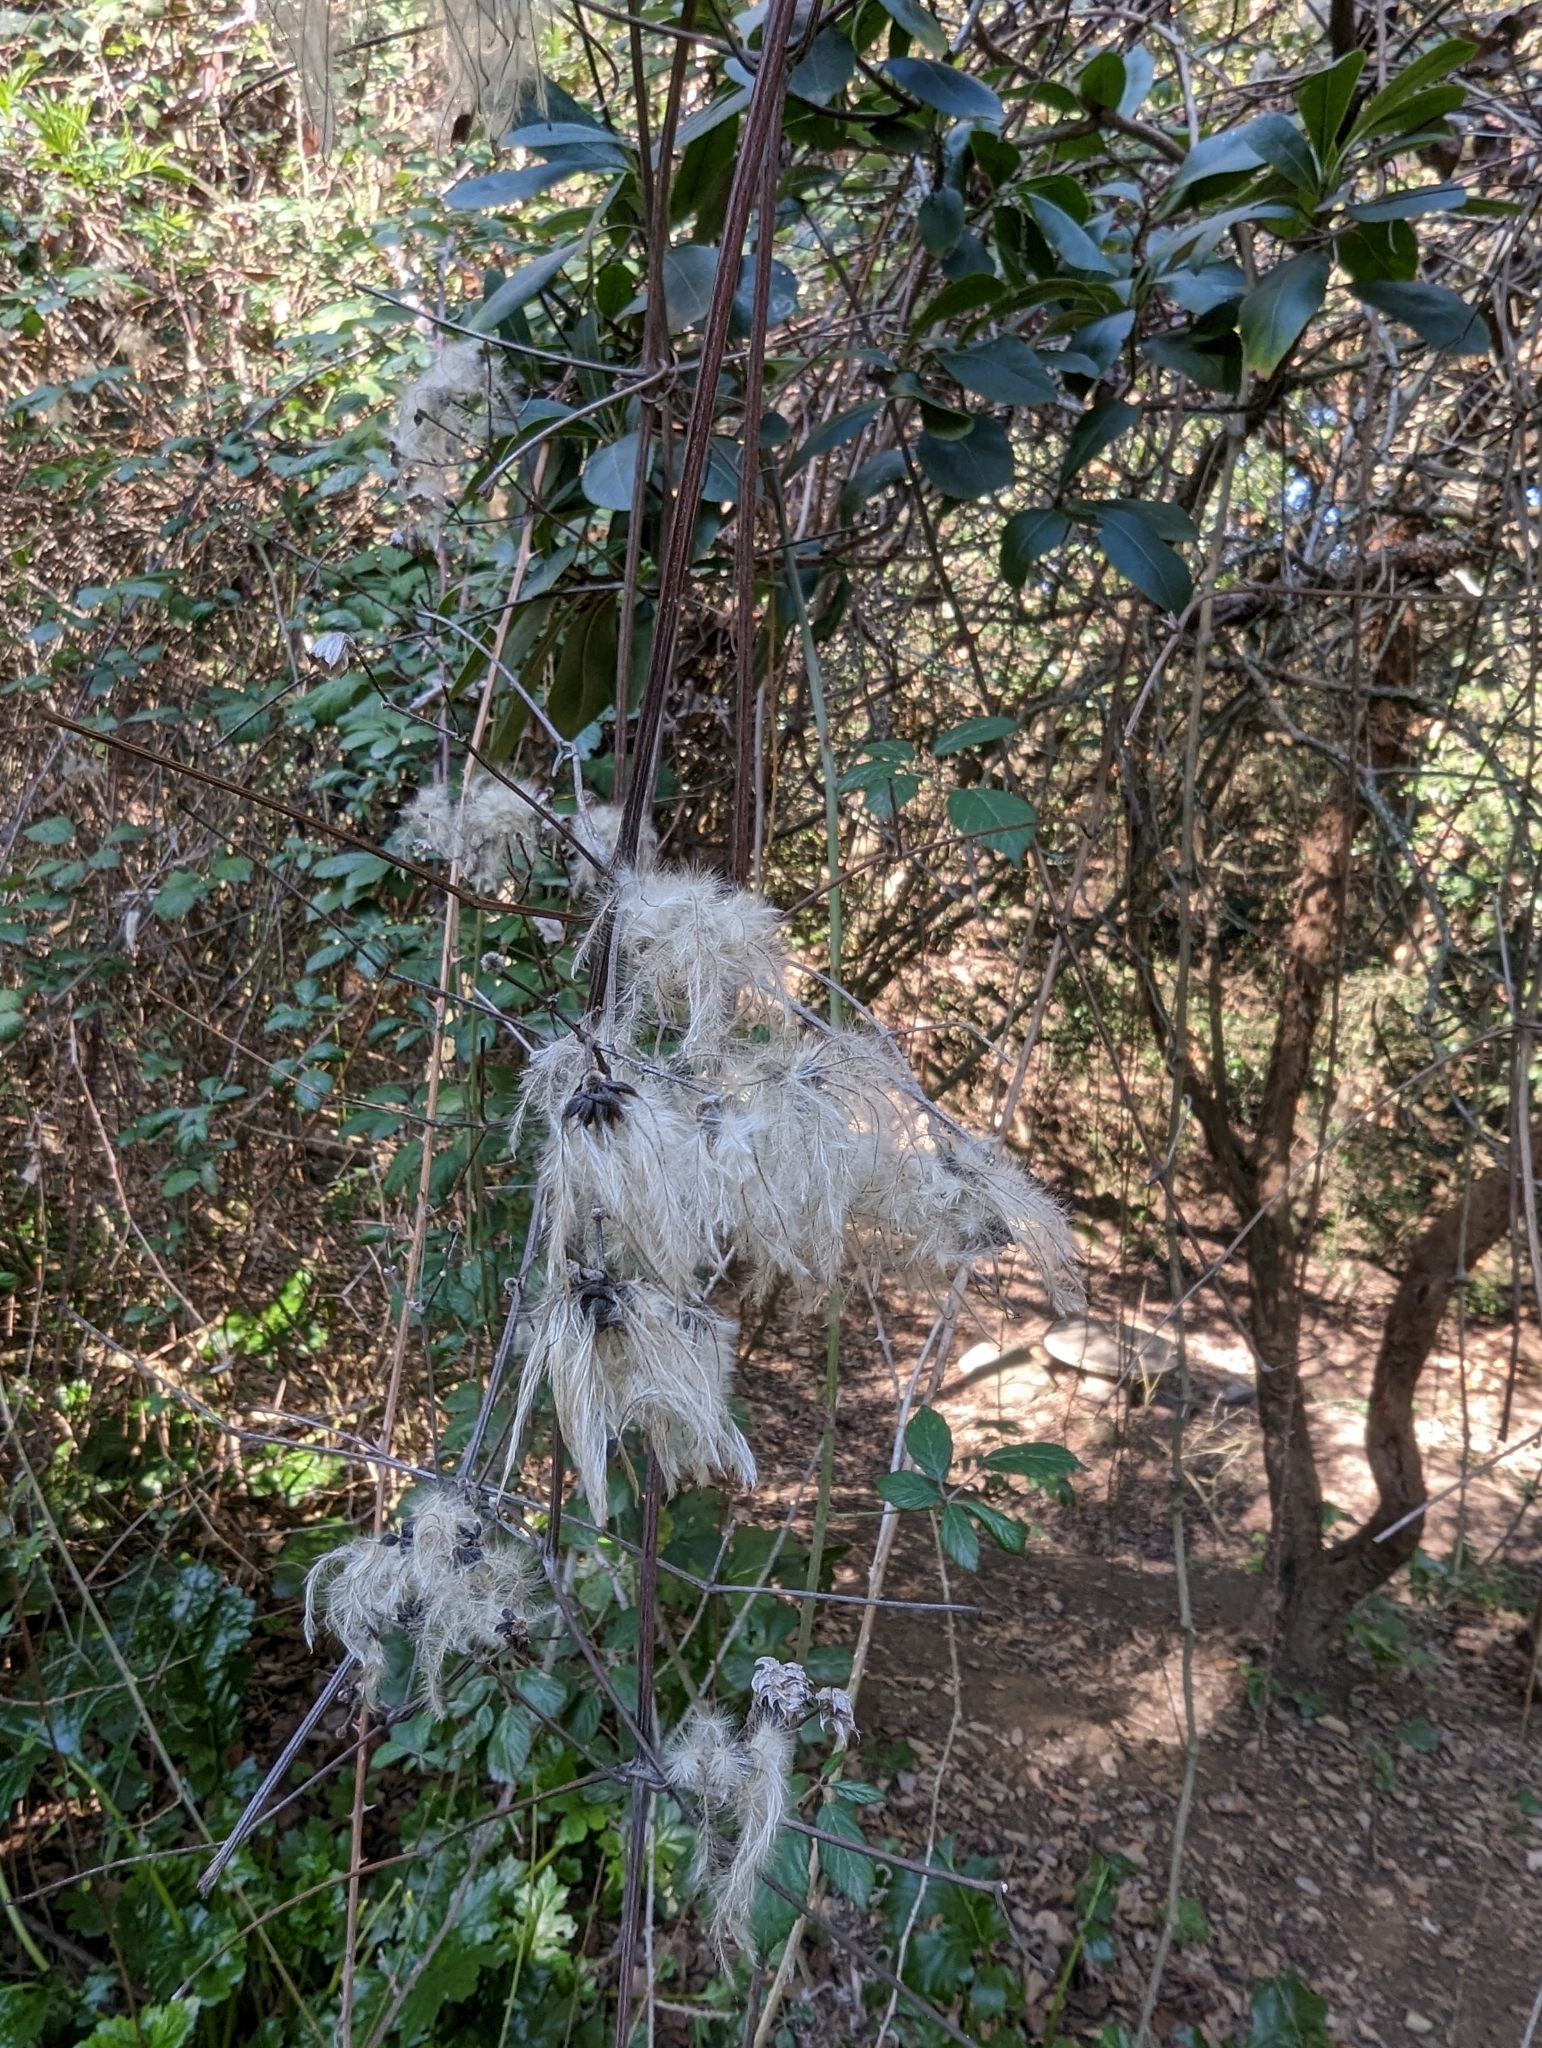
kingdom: Plantae
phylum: Tracheophyta
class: Magnoliopsida
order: Ranunculales
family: Ranunculaceae
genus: Clematis
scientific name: Clematis vitalba
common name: Evergreen clematis
